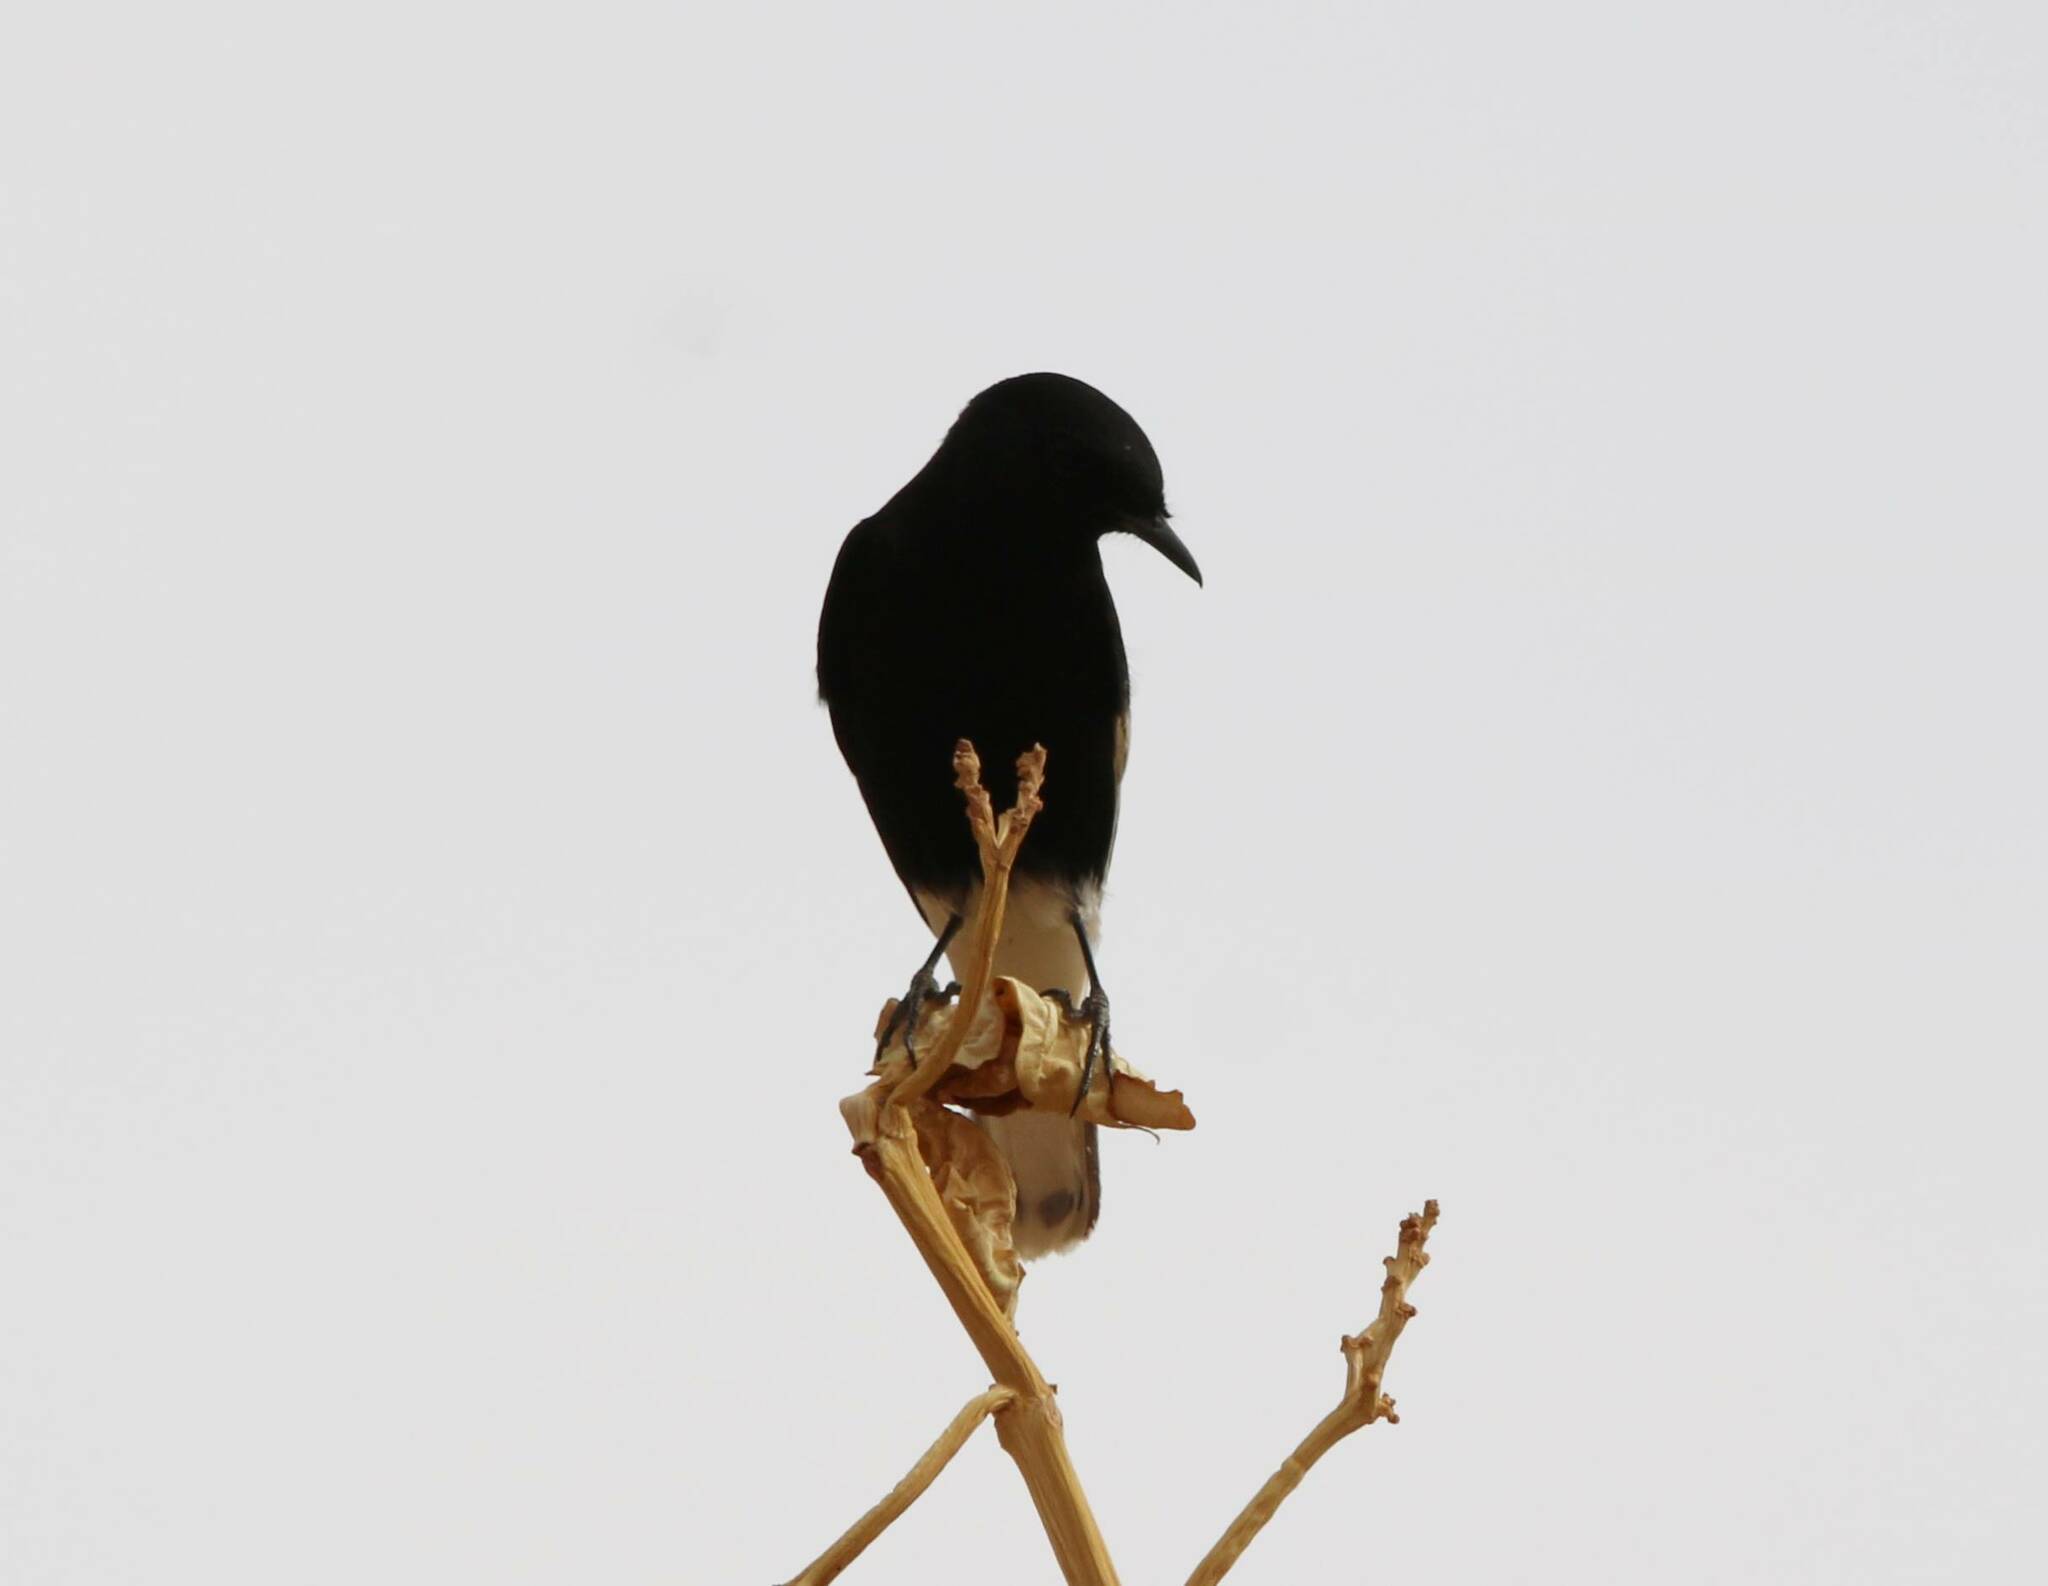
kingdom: Animalia
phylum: Chordata
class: Aves
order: Passeriformes
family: Muscicapidae
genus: Oenanthe
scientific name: Oenanthe leucopyga
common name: White-crowned wheatear
